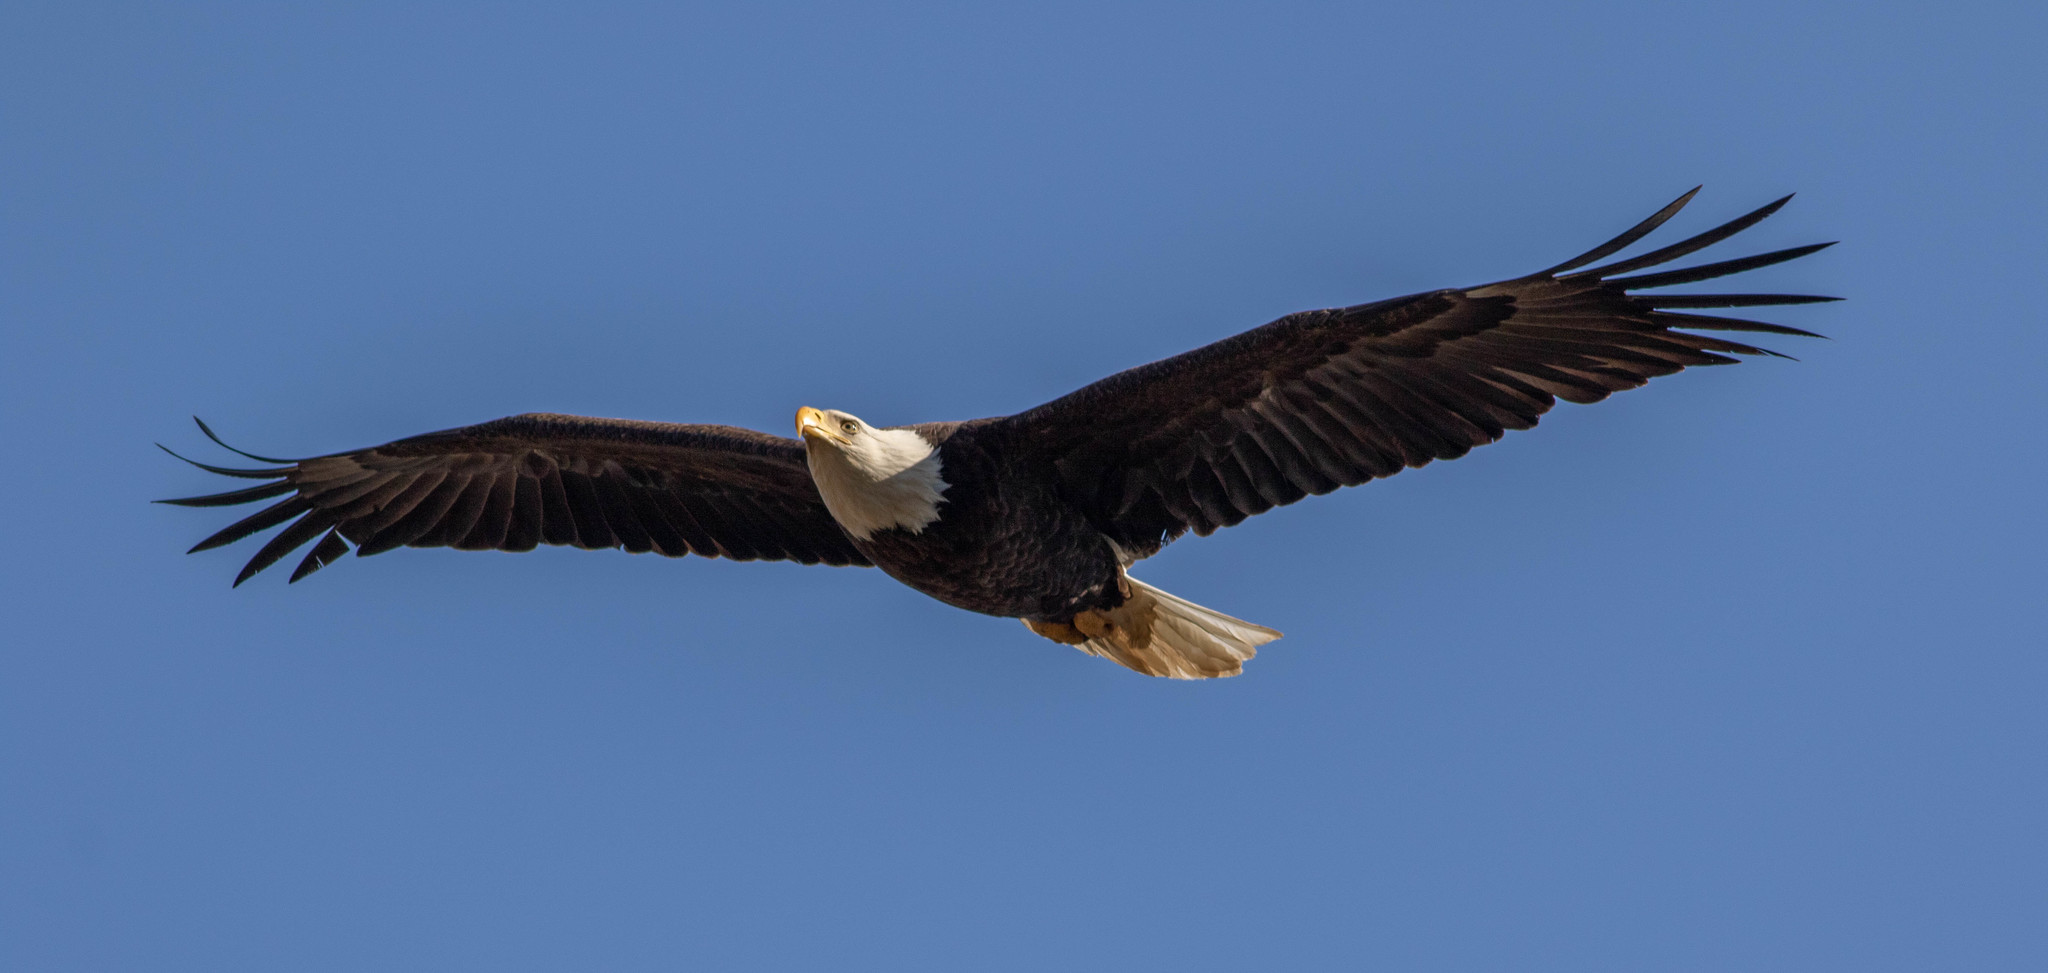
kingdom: Animalia
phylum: Chordata
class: Aves
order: Accipitriformes
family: Accipitridae
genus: Haliaeetus
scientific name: Haliaeetus leucocephalus
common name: Bald eagle
